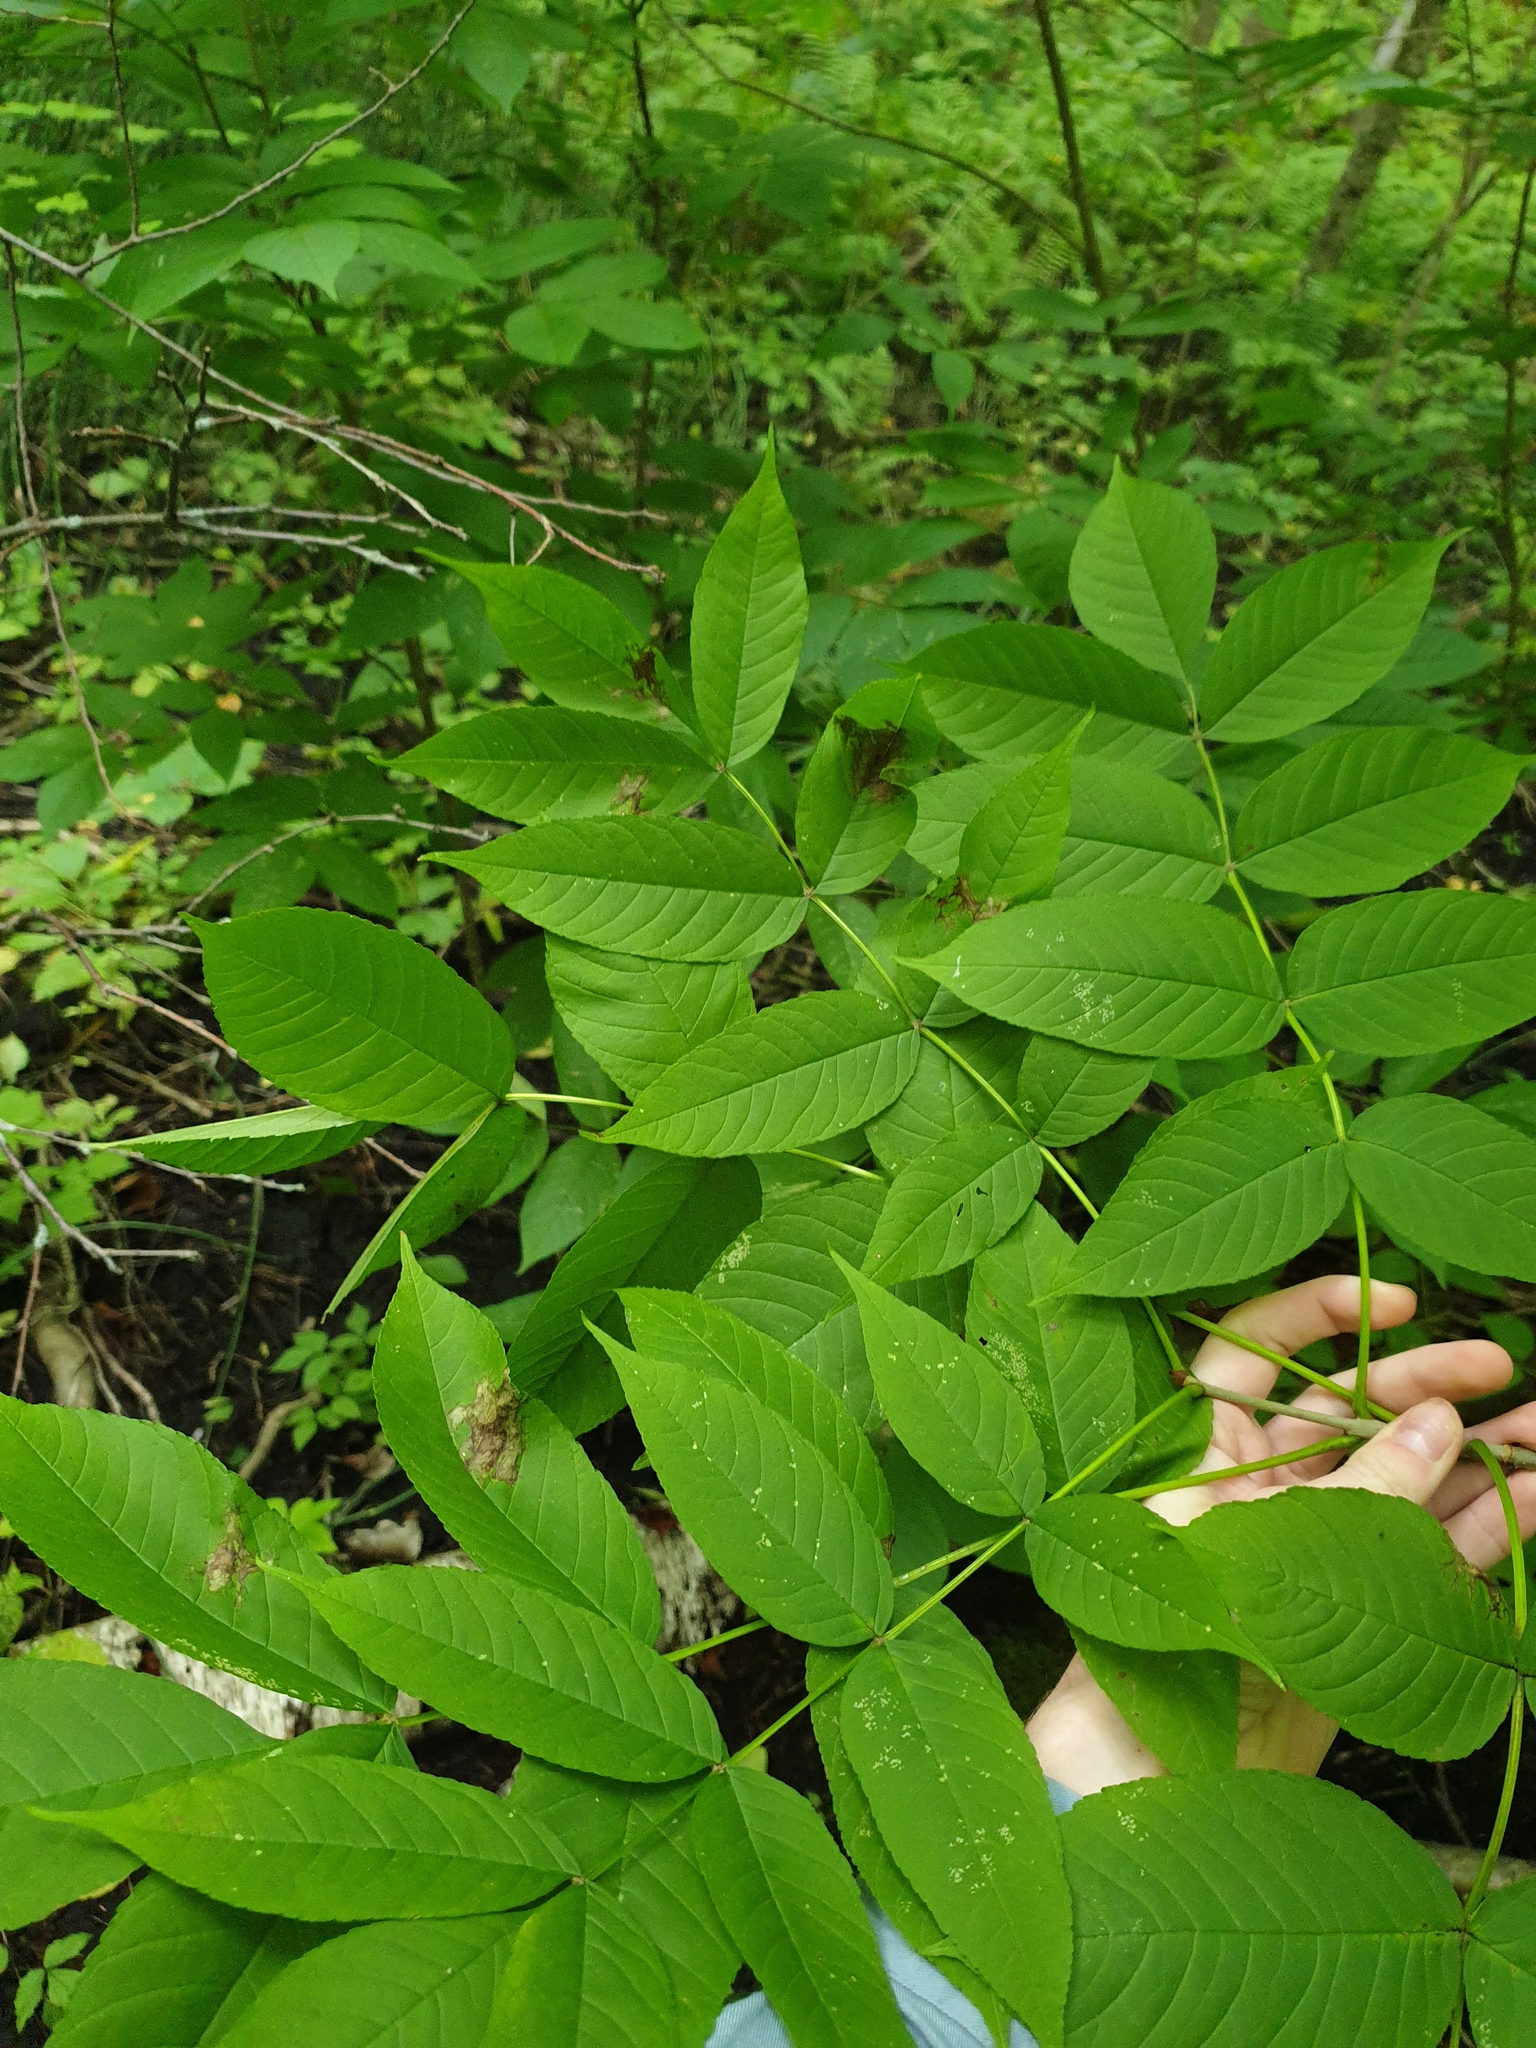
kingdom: Plantae
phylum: Tracheophyta
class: Magnoliopsida
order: Lamiales
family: Oleaceae
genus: Fraxinus
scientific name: Fraxinus nigra
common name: Black ash
